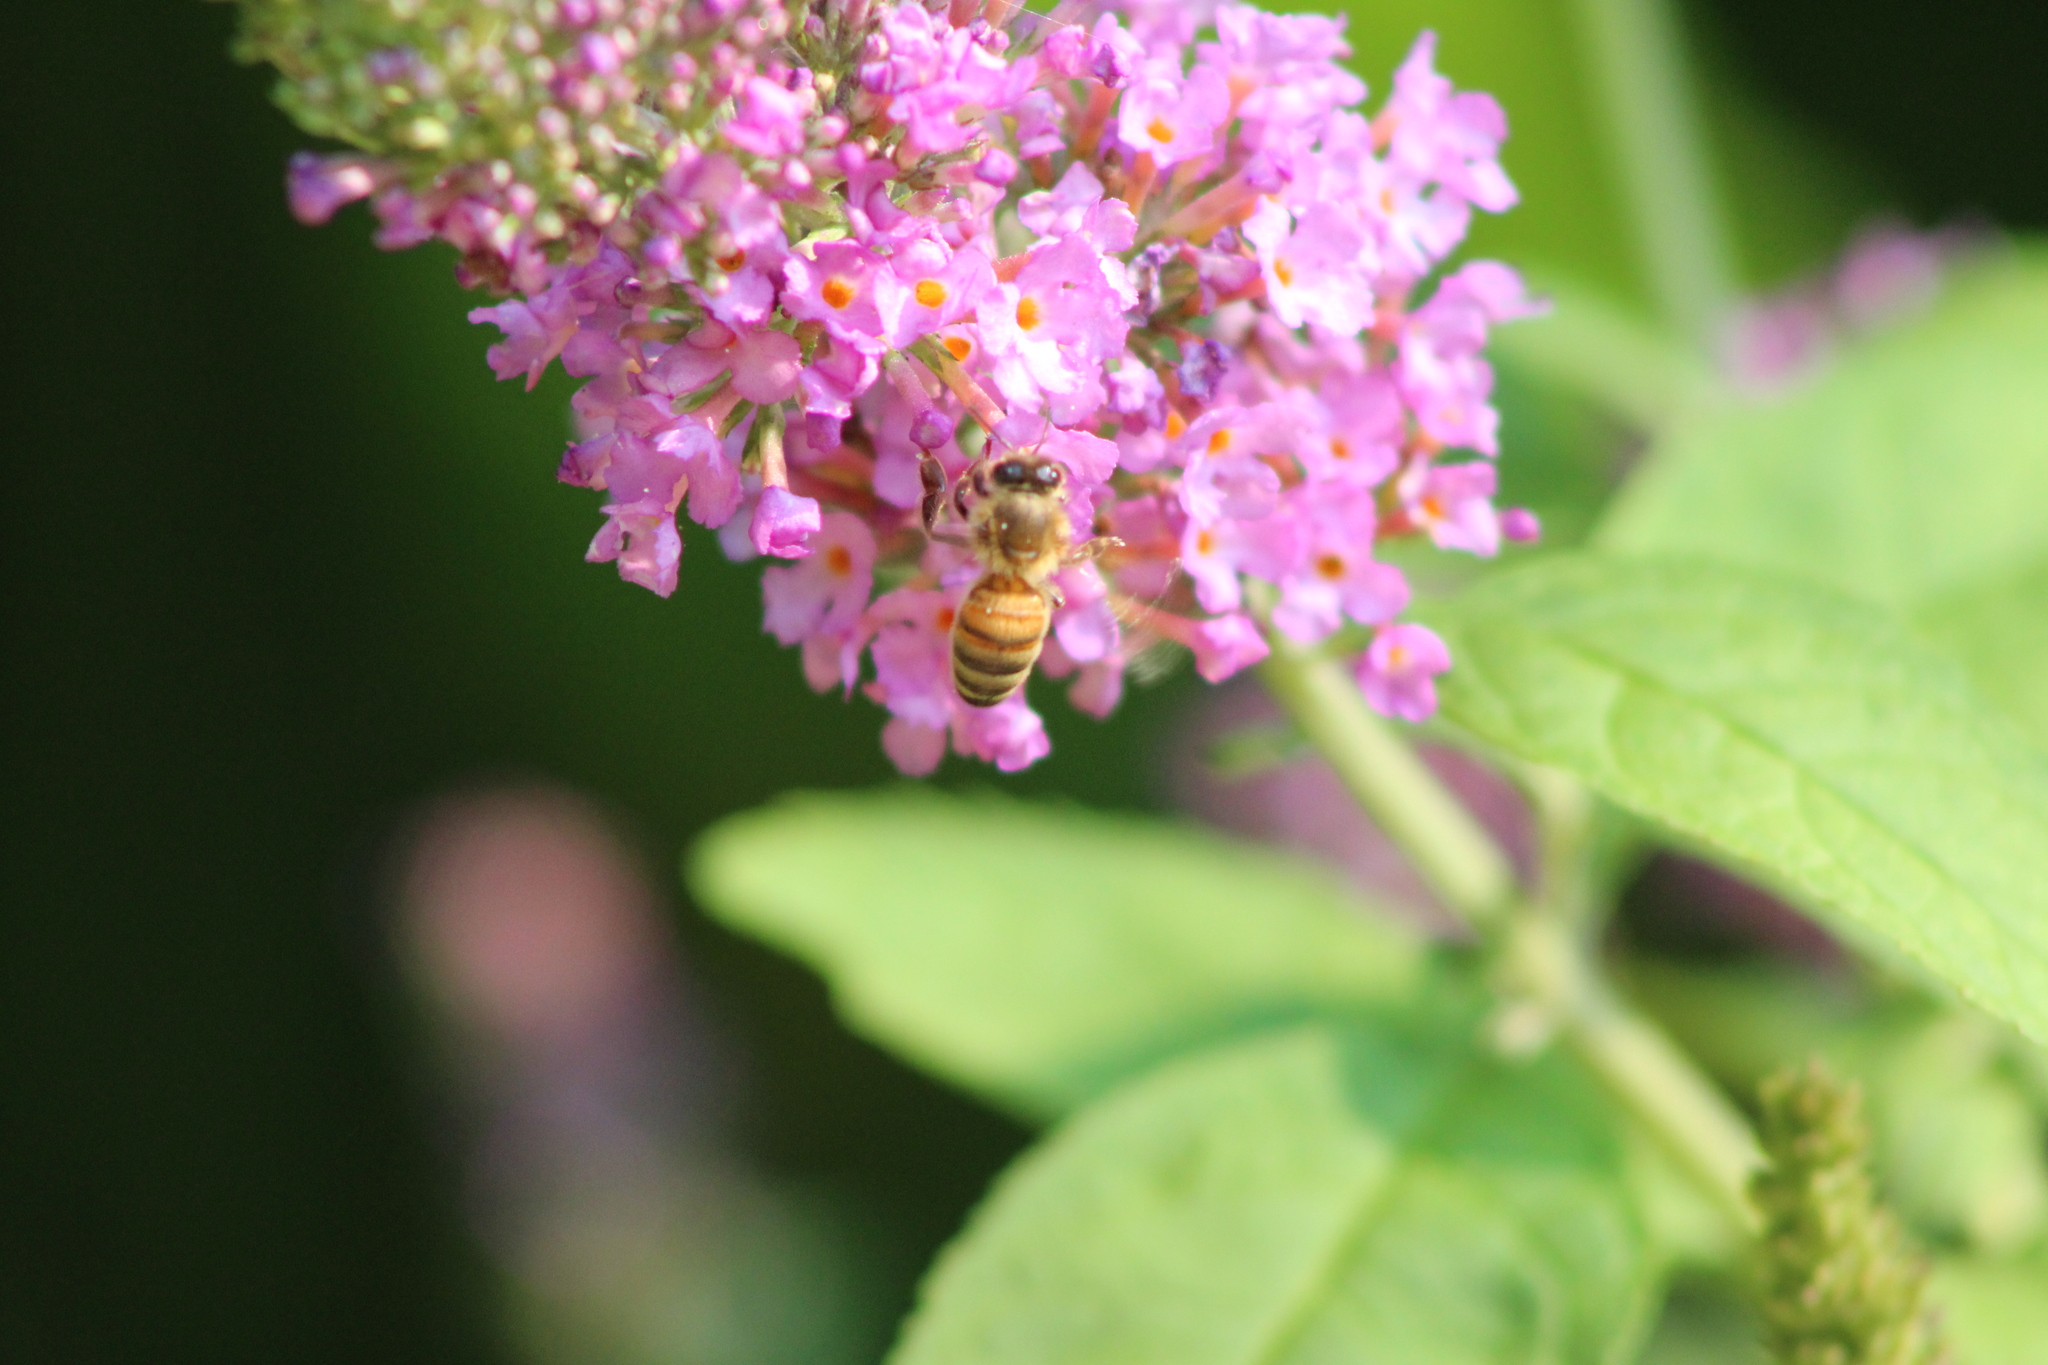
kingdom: Animalia
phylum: Arthropoda
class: Insecta
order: Hymenoptera
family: Apidae
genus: Apis
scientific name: Apis mellifera
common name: Honey bee
